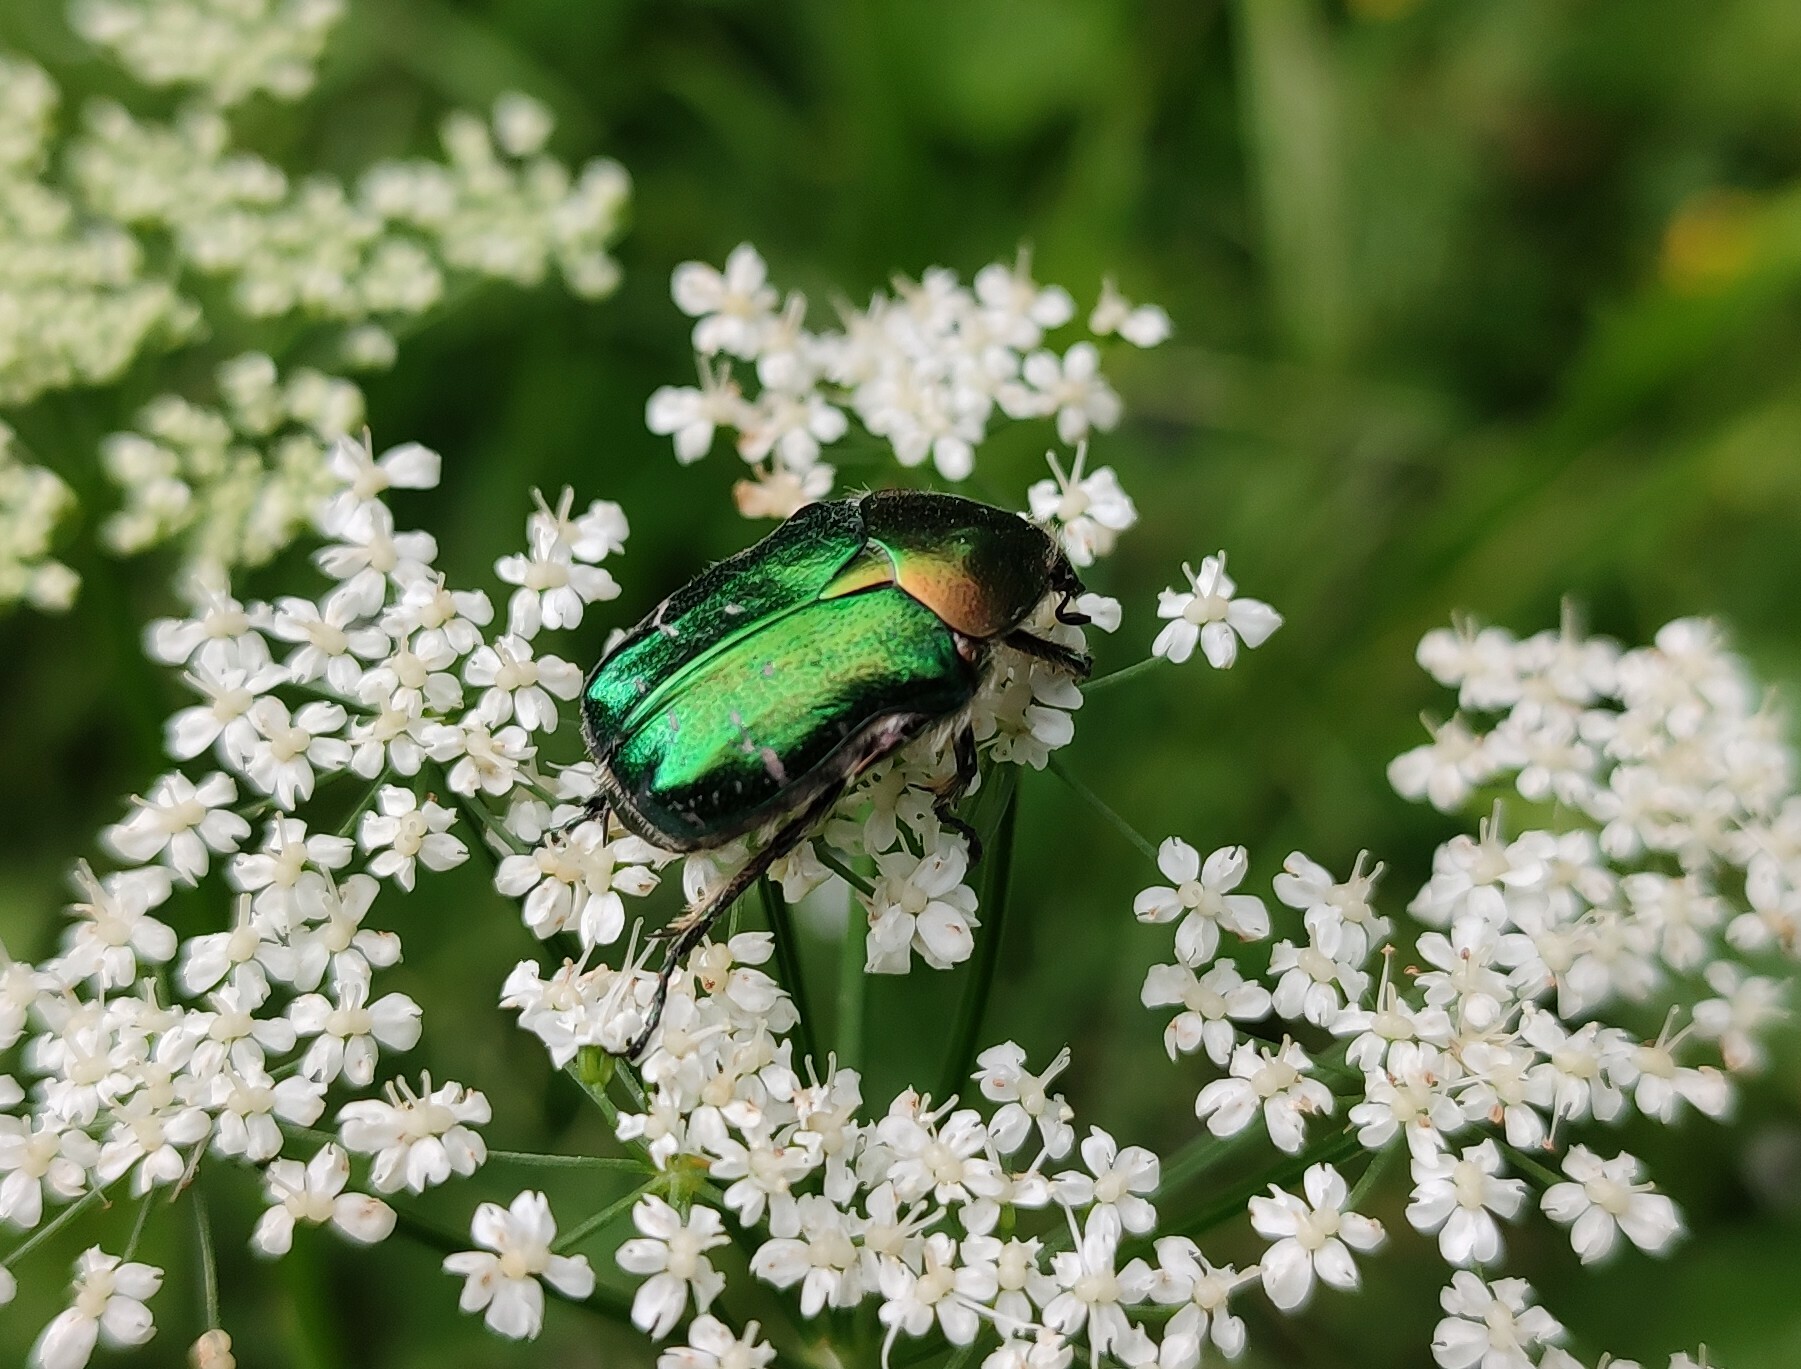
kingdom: Animalia
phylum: Arthropoda
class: Insecta
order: Coleoptera
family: Scarabaeidae
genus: Cetonia
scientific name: Cetonia aurata
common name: Rose chafer
